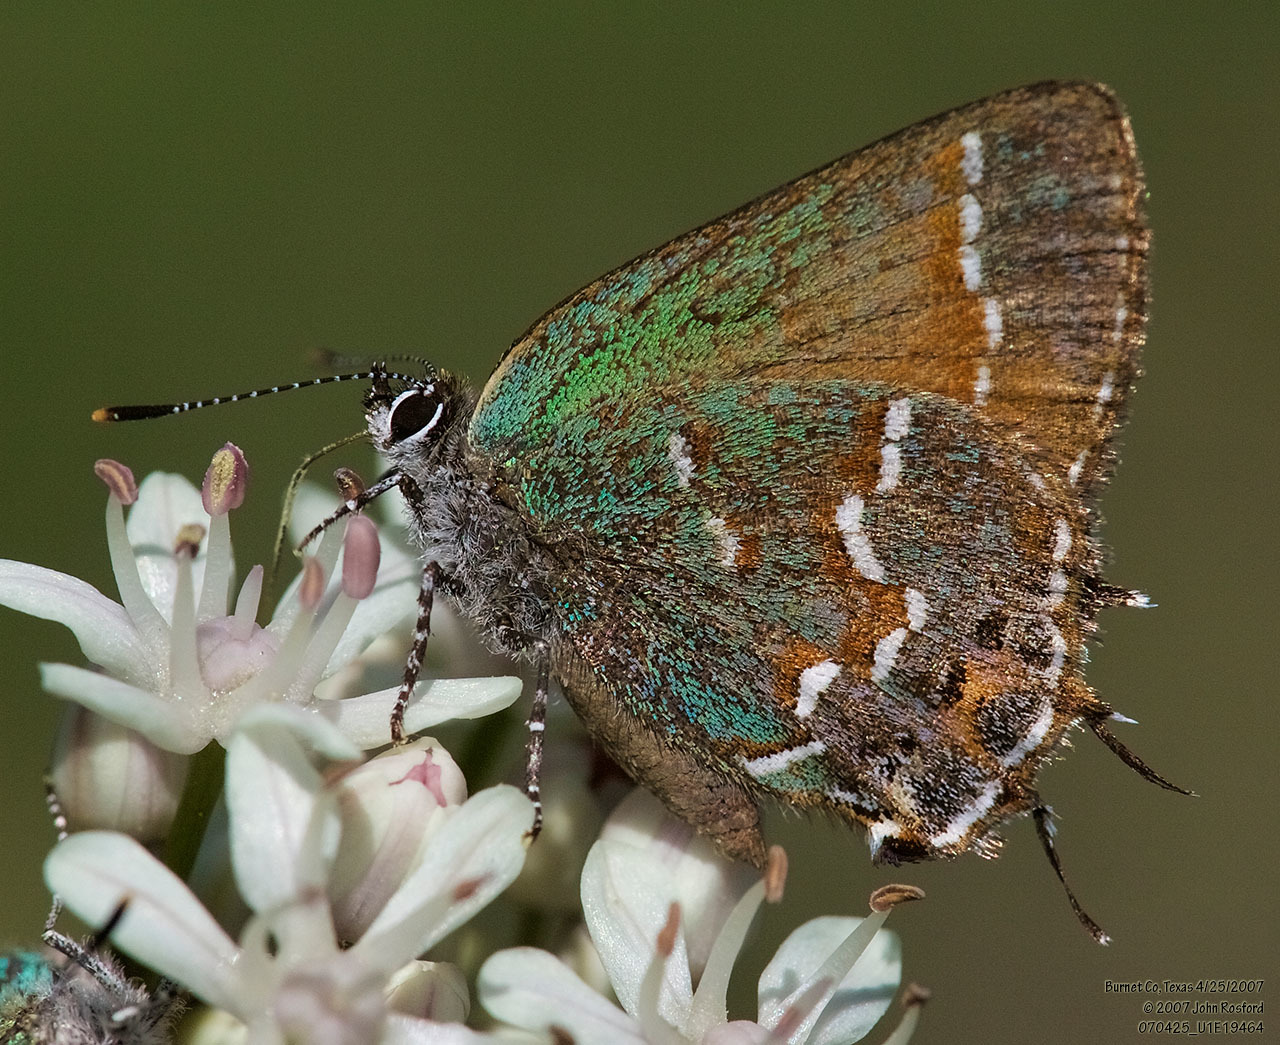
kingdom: Animalia
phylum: Arthropoda
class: Insecta
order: Lepidoptera
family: Lycaenidae
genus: Mitoura
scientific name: Mitoura gryneus
